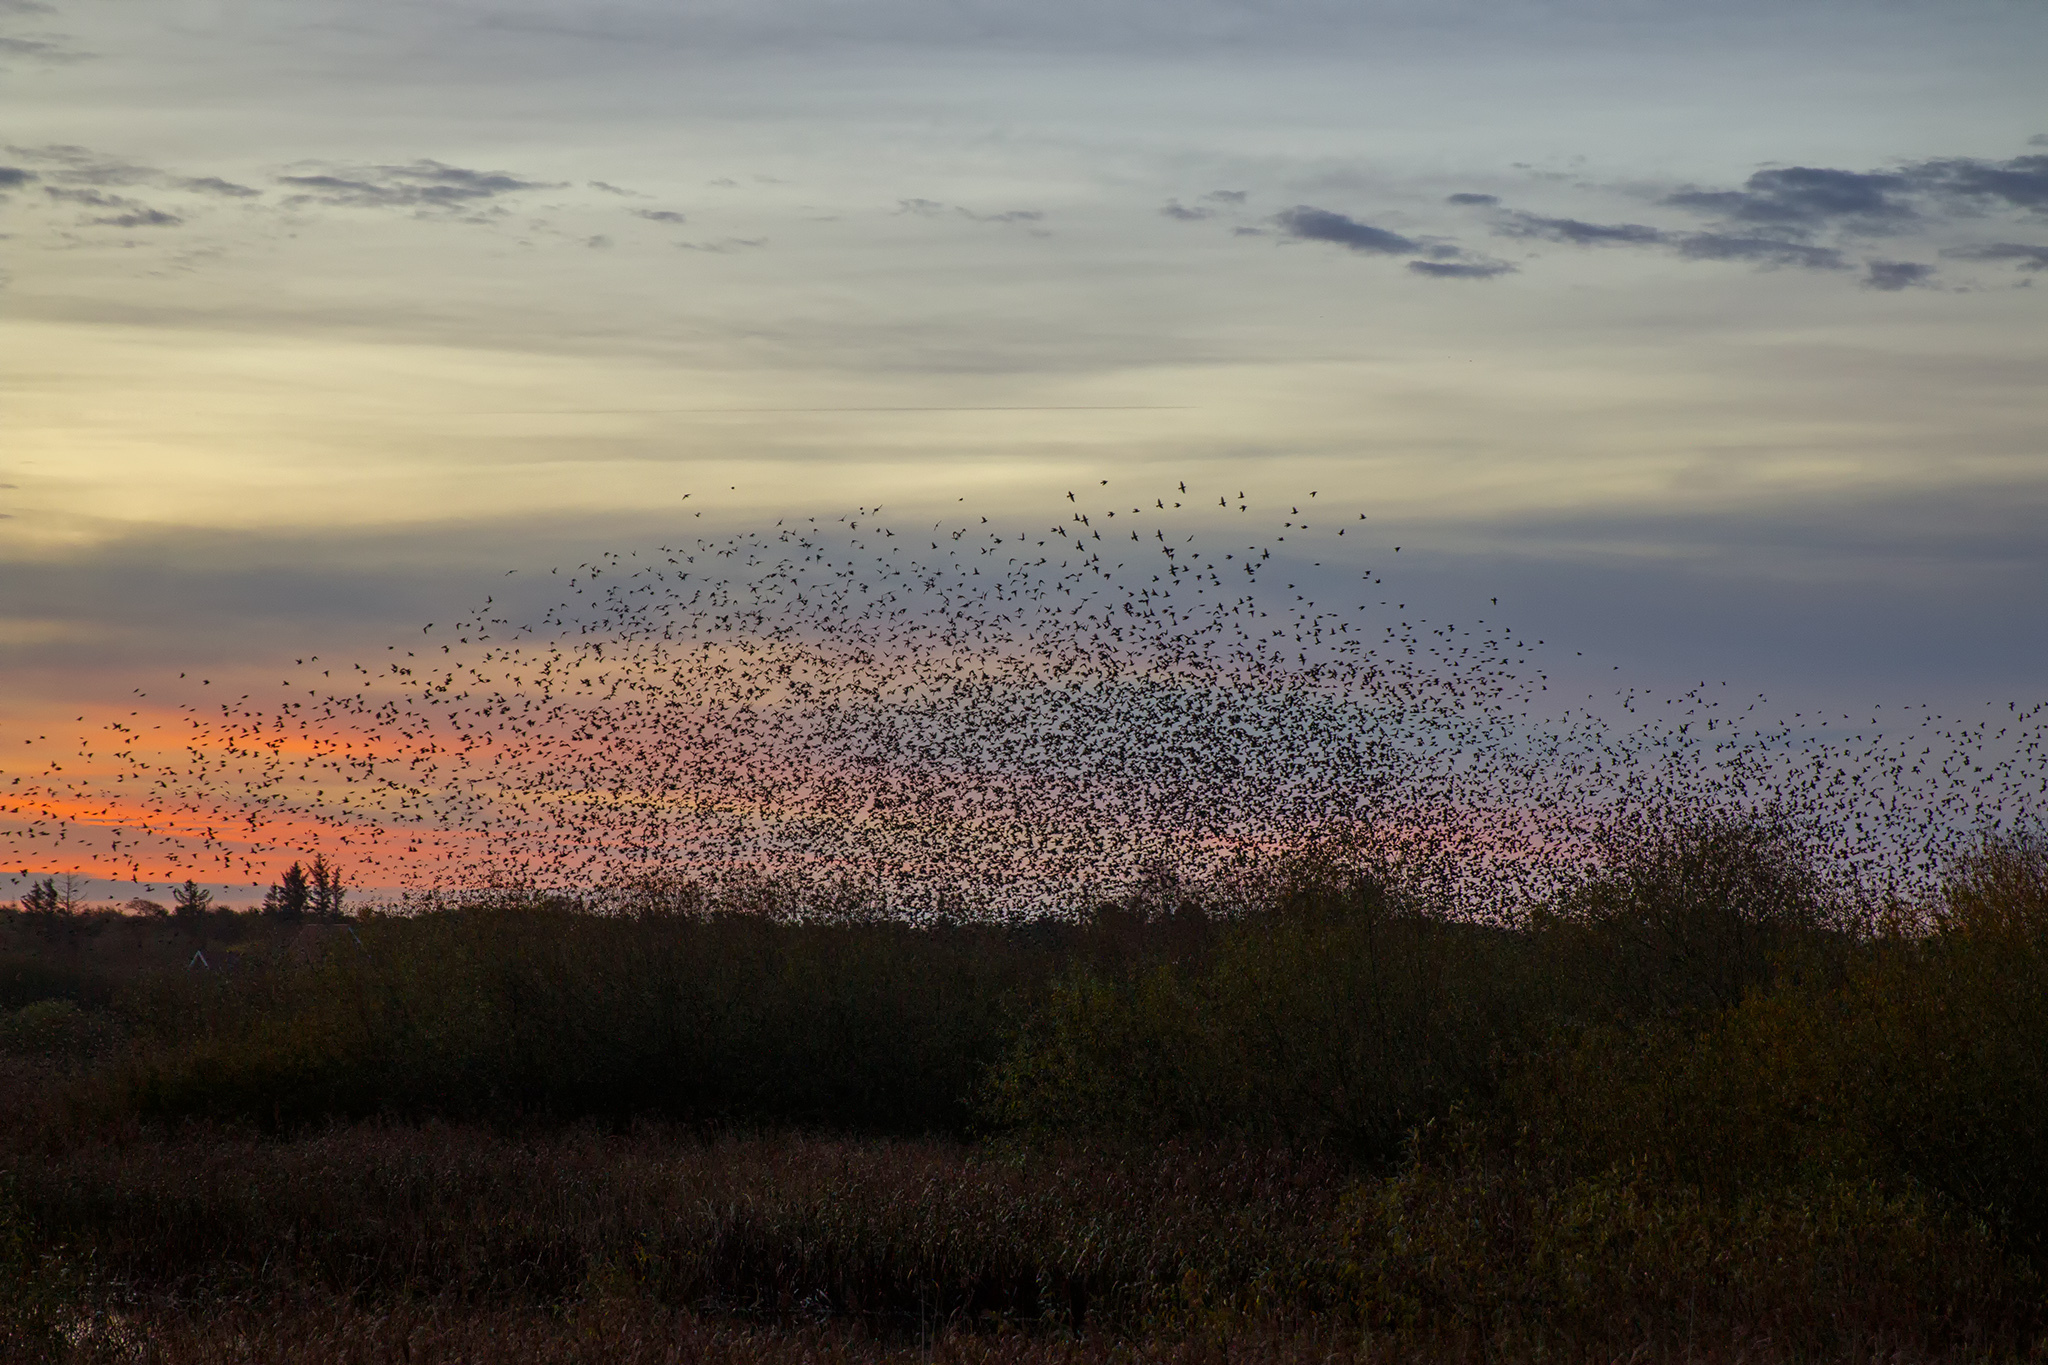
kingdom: Animalia
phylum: Chordata
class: Aves
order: Passeriformes
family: Sturnidae
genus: Sturnus
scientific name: Sturnus vulgaris
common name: Common starling
